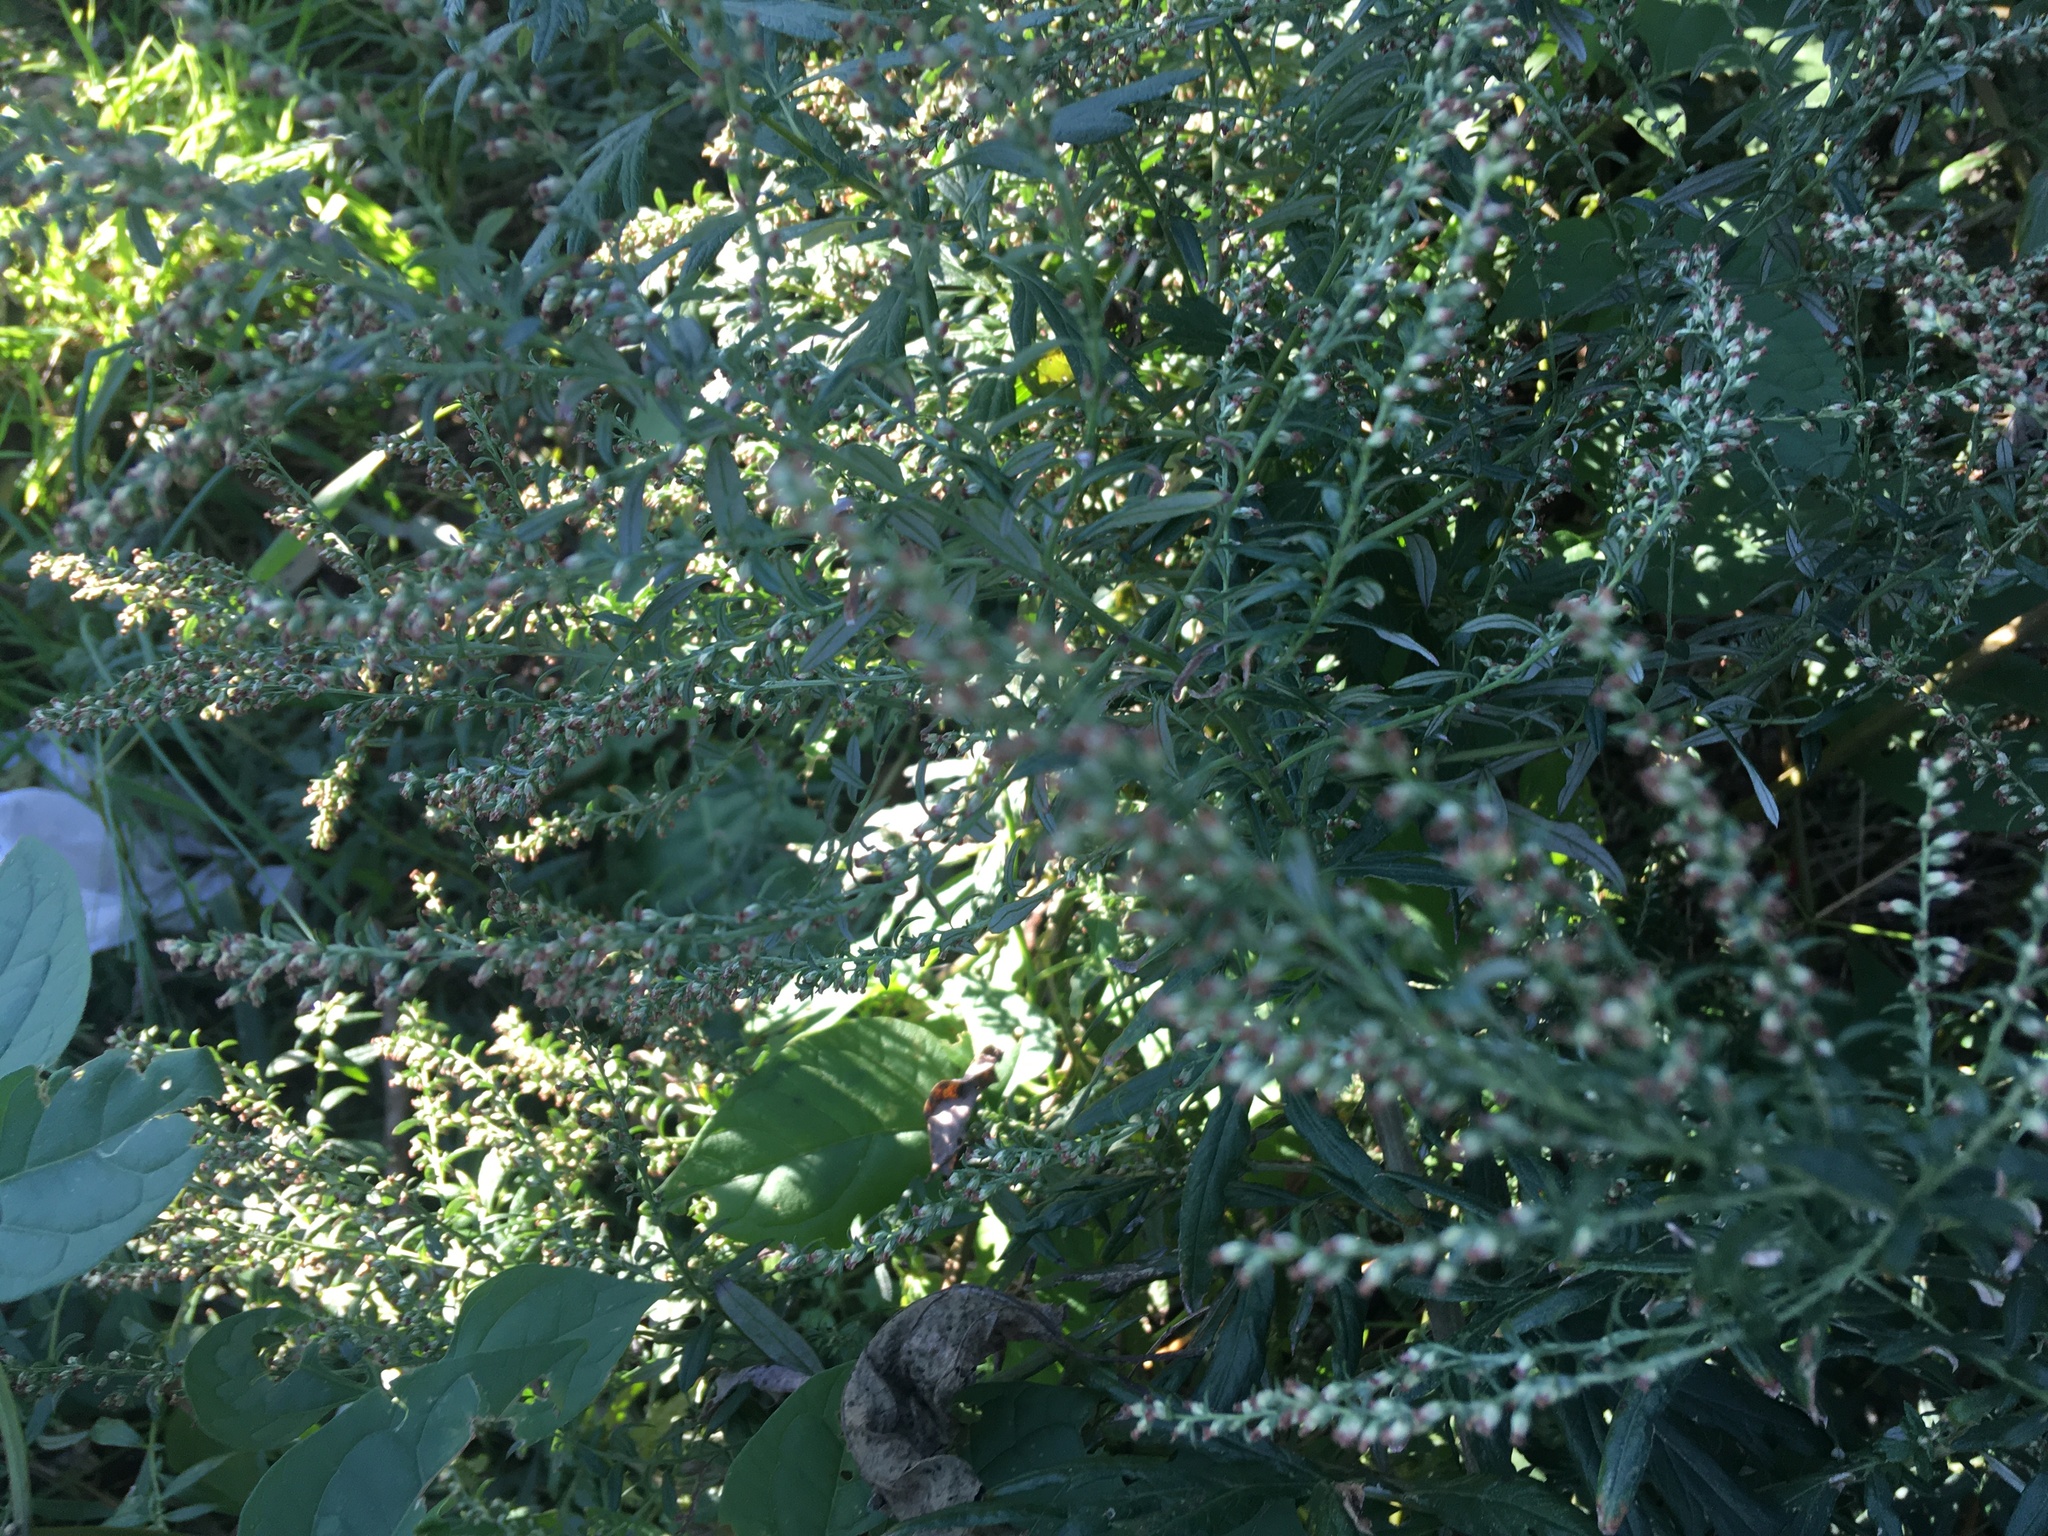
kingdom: Plantae
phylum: Tracheophyta
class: Magnoliopsida
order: Asterales
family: Asteraceae
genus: Artemisia
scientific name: Artemisia vulgaris
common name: Mugwort
